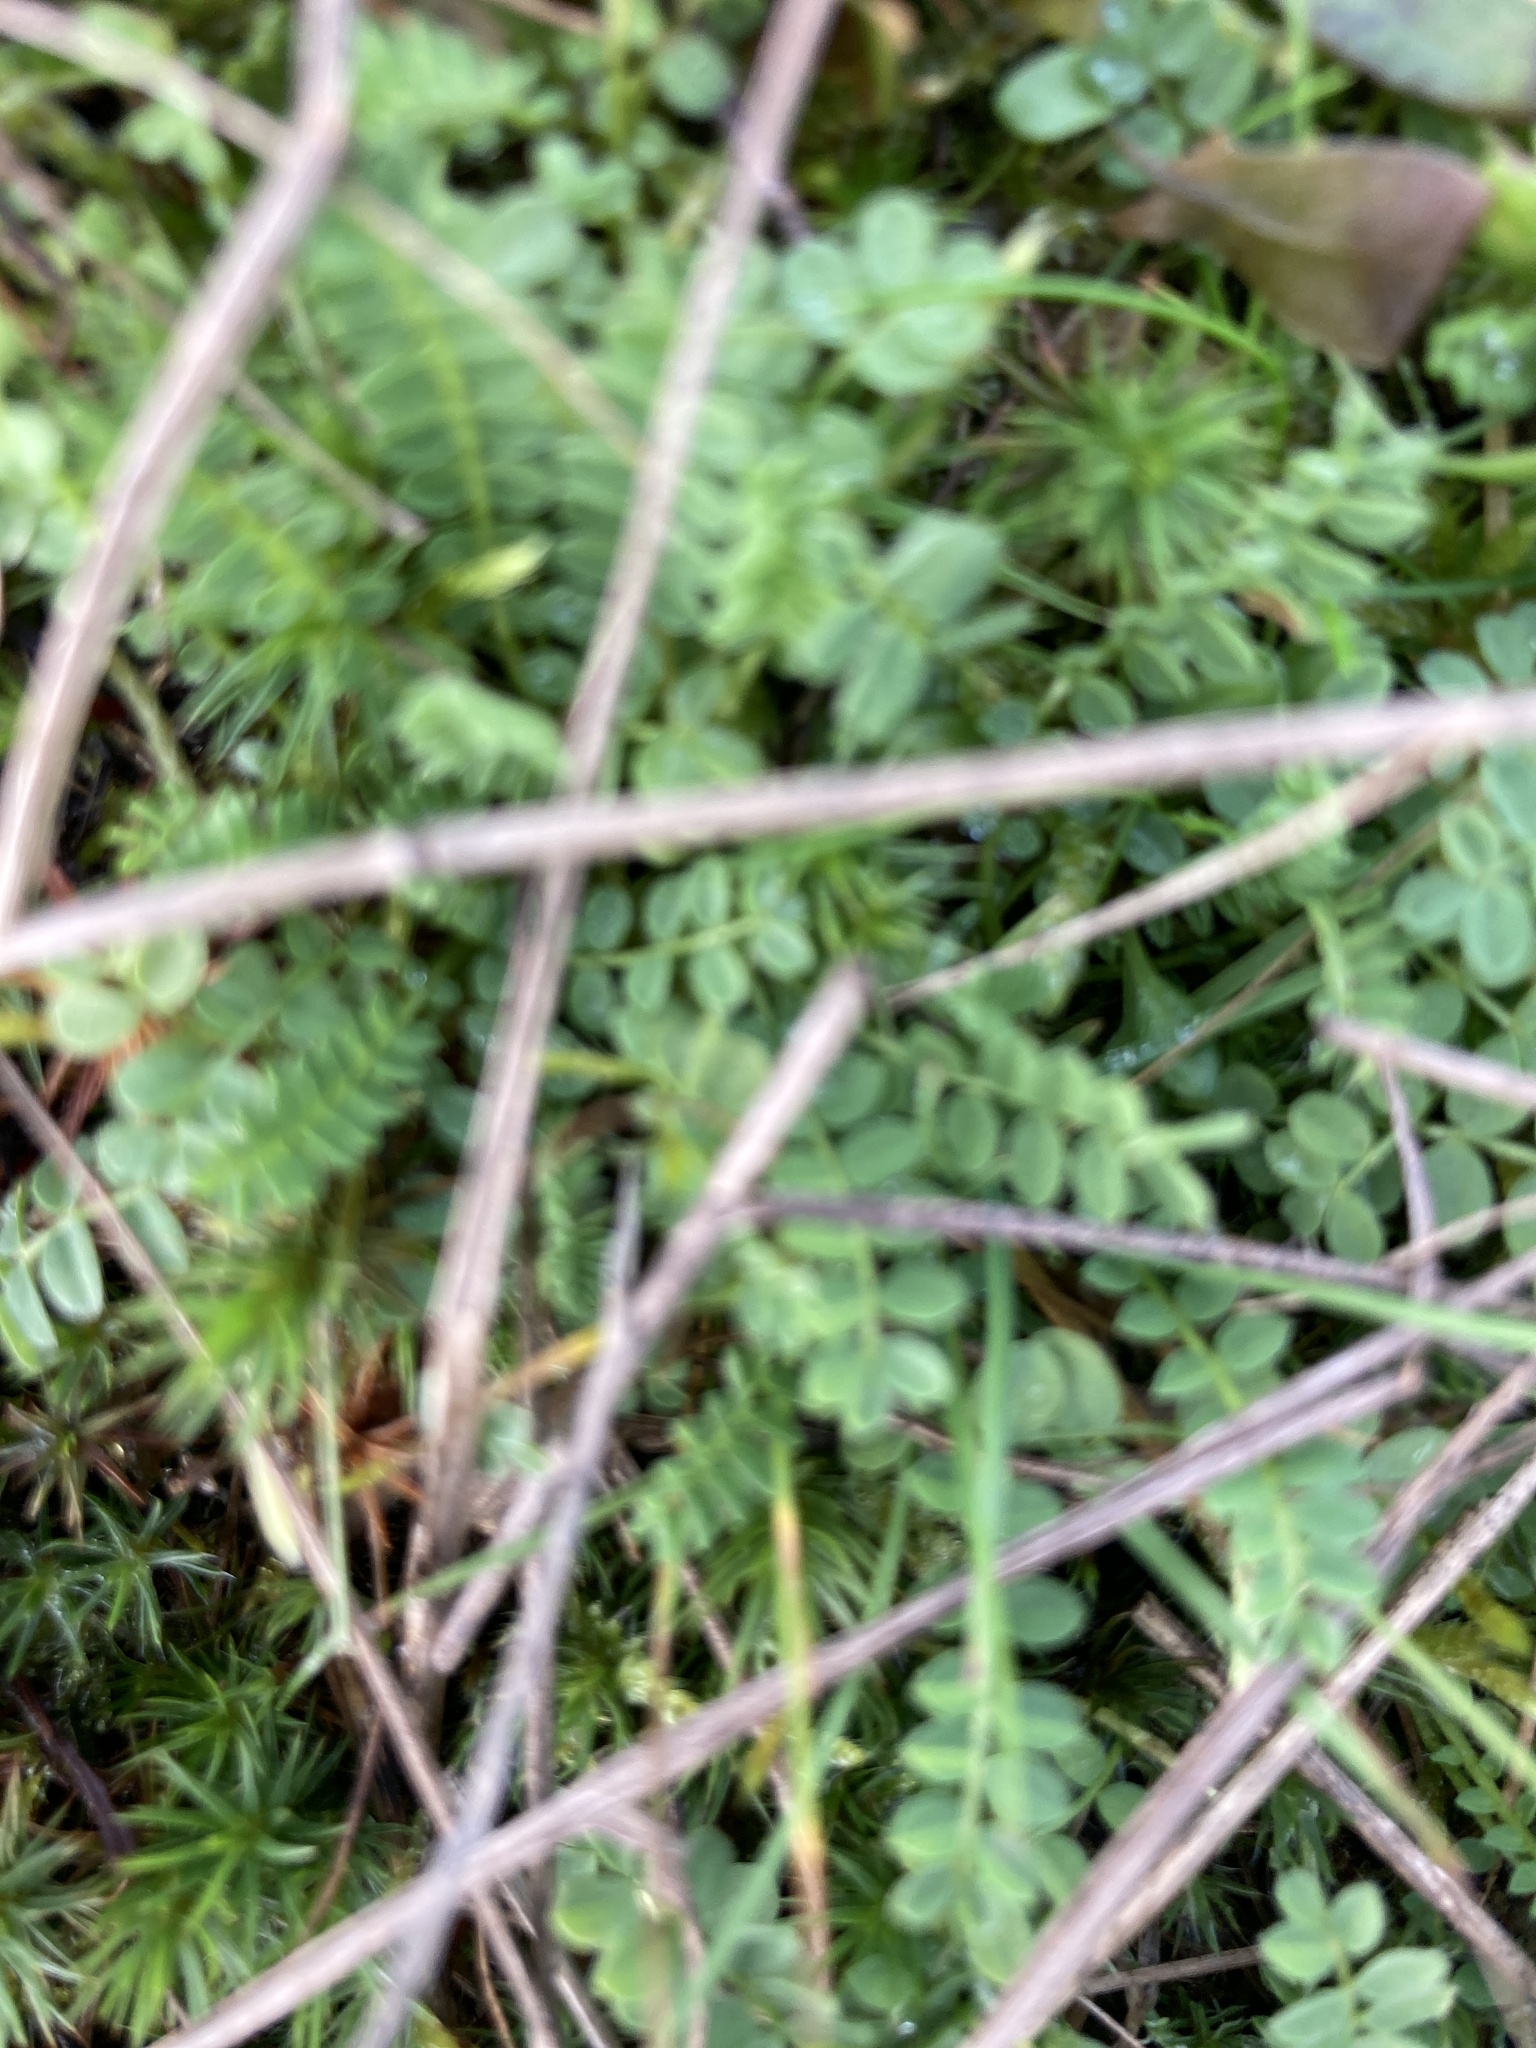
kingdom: Plantae
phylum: Tracheophyta
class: Magnoliopsida
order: Fabales
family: Fabaceae
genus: Ornithopus
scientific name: Ornithopus perpusillus
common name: Bird's-foot
